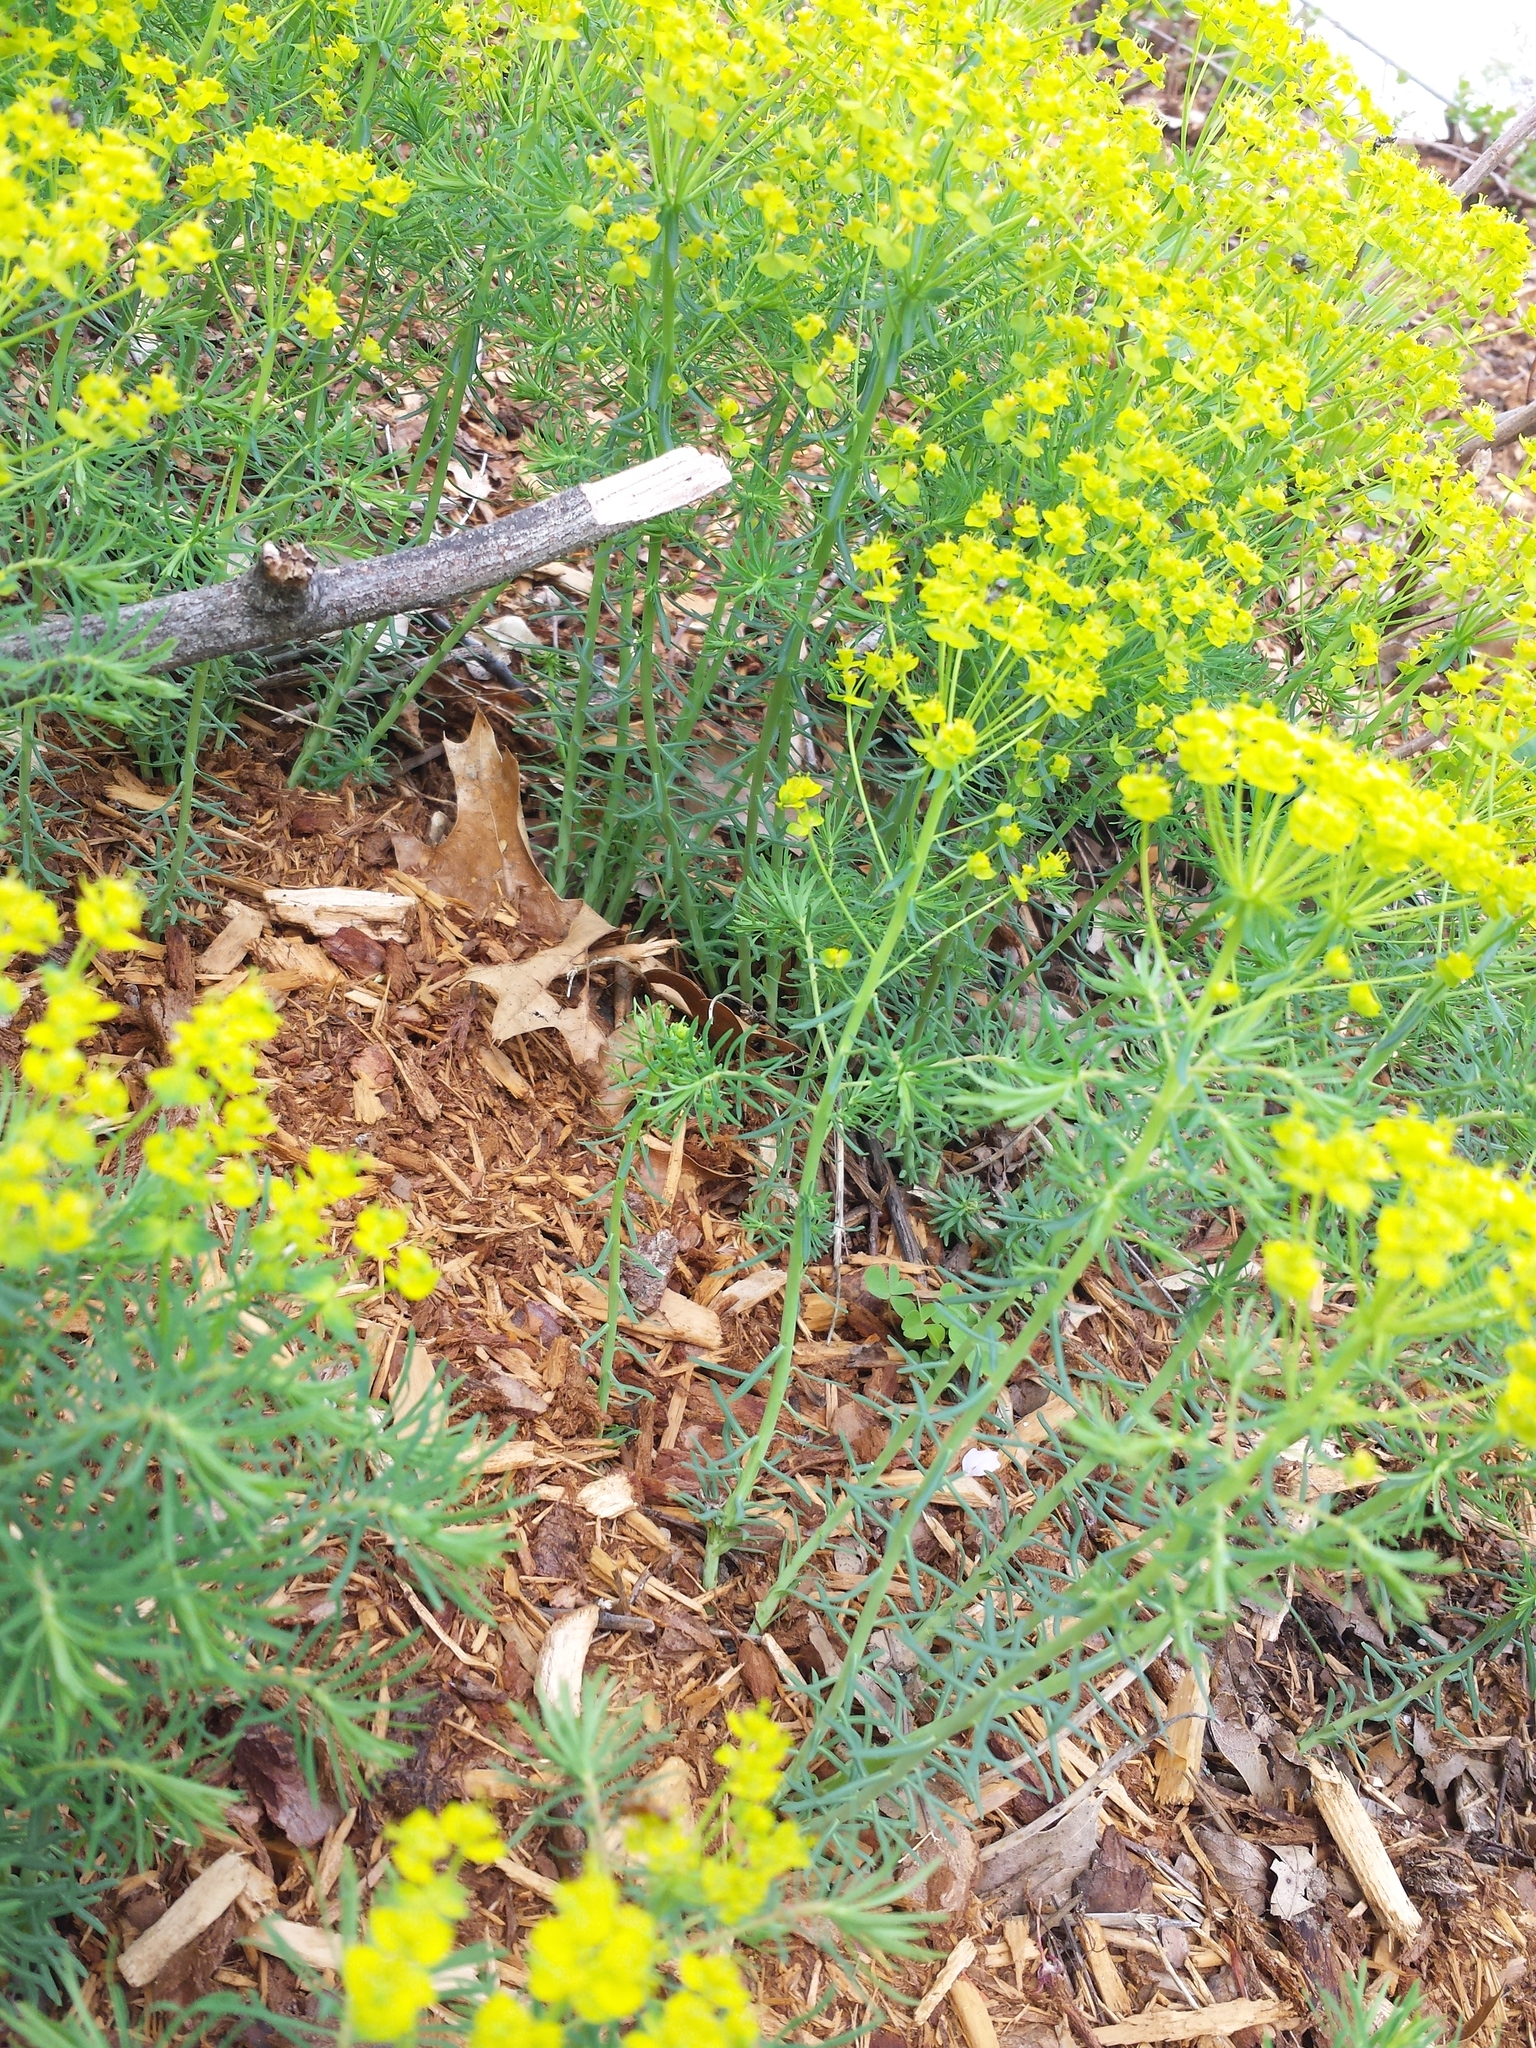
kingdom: Plantae
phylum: Tracheophyta
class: Magnoliopsida
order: Malpighiales
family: Euphorbiaceae
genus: Euphorbia
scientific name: Euphorbia cyparissias
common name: Cypress spurge
